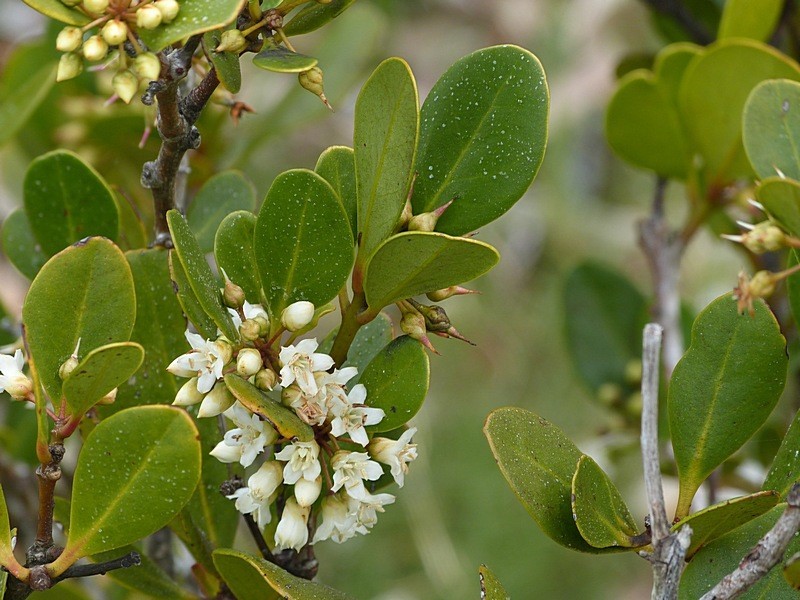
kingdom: Plantae
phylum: Tracheophyta
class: Magnoliopsida
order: Ericales
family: Primulaceae
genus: Aegiceras
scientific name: Aegiceras corniculatum
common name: River mangrove
